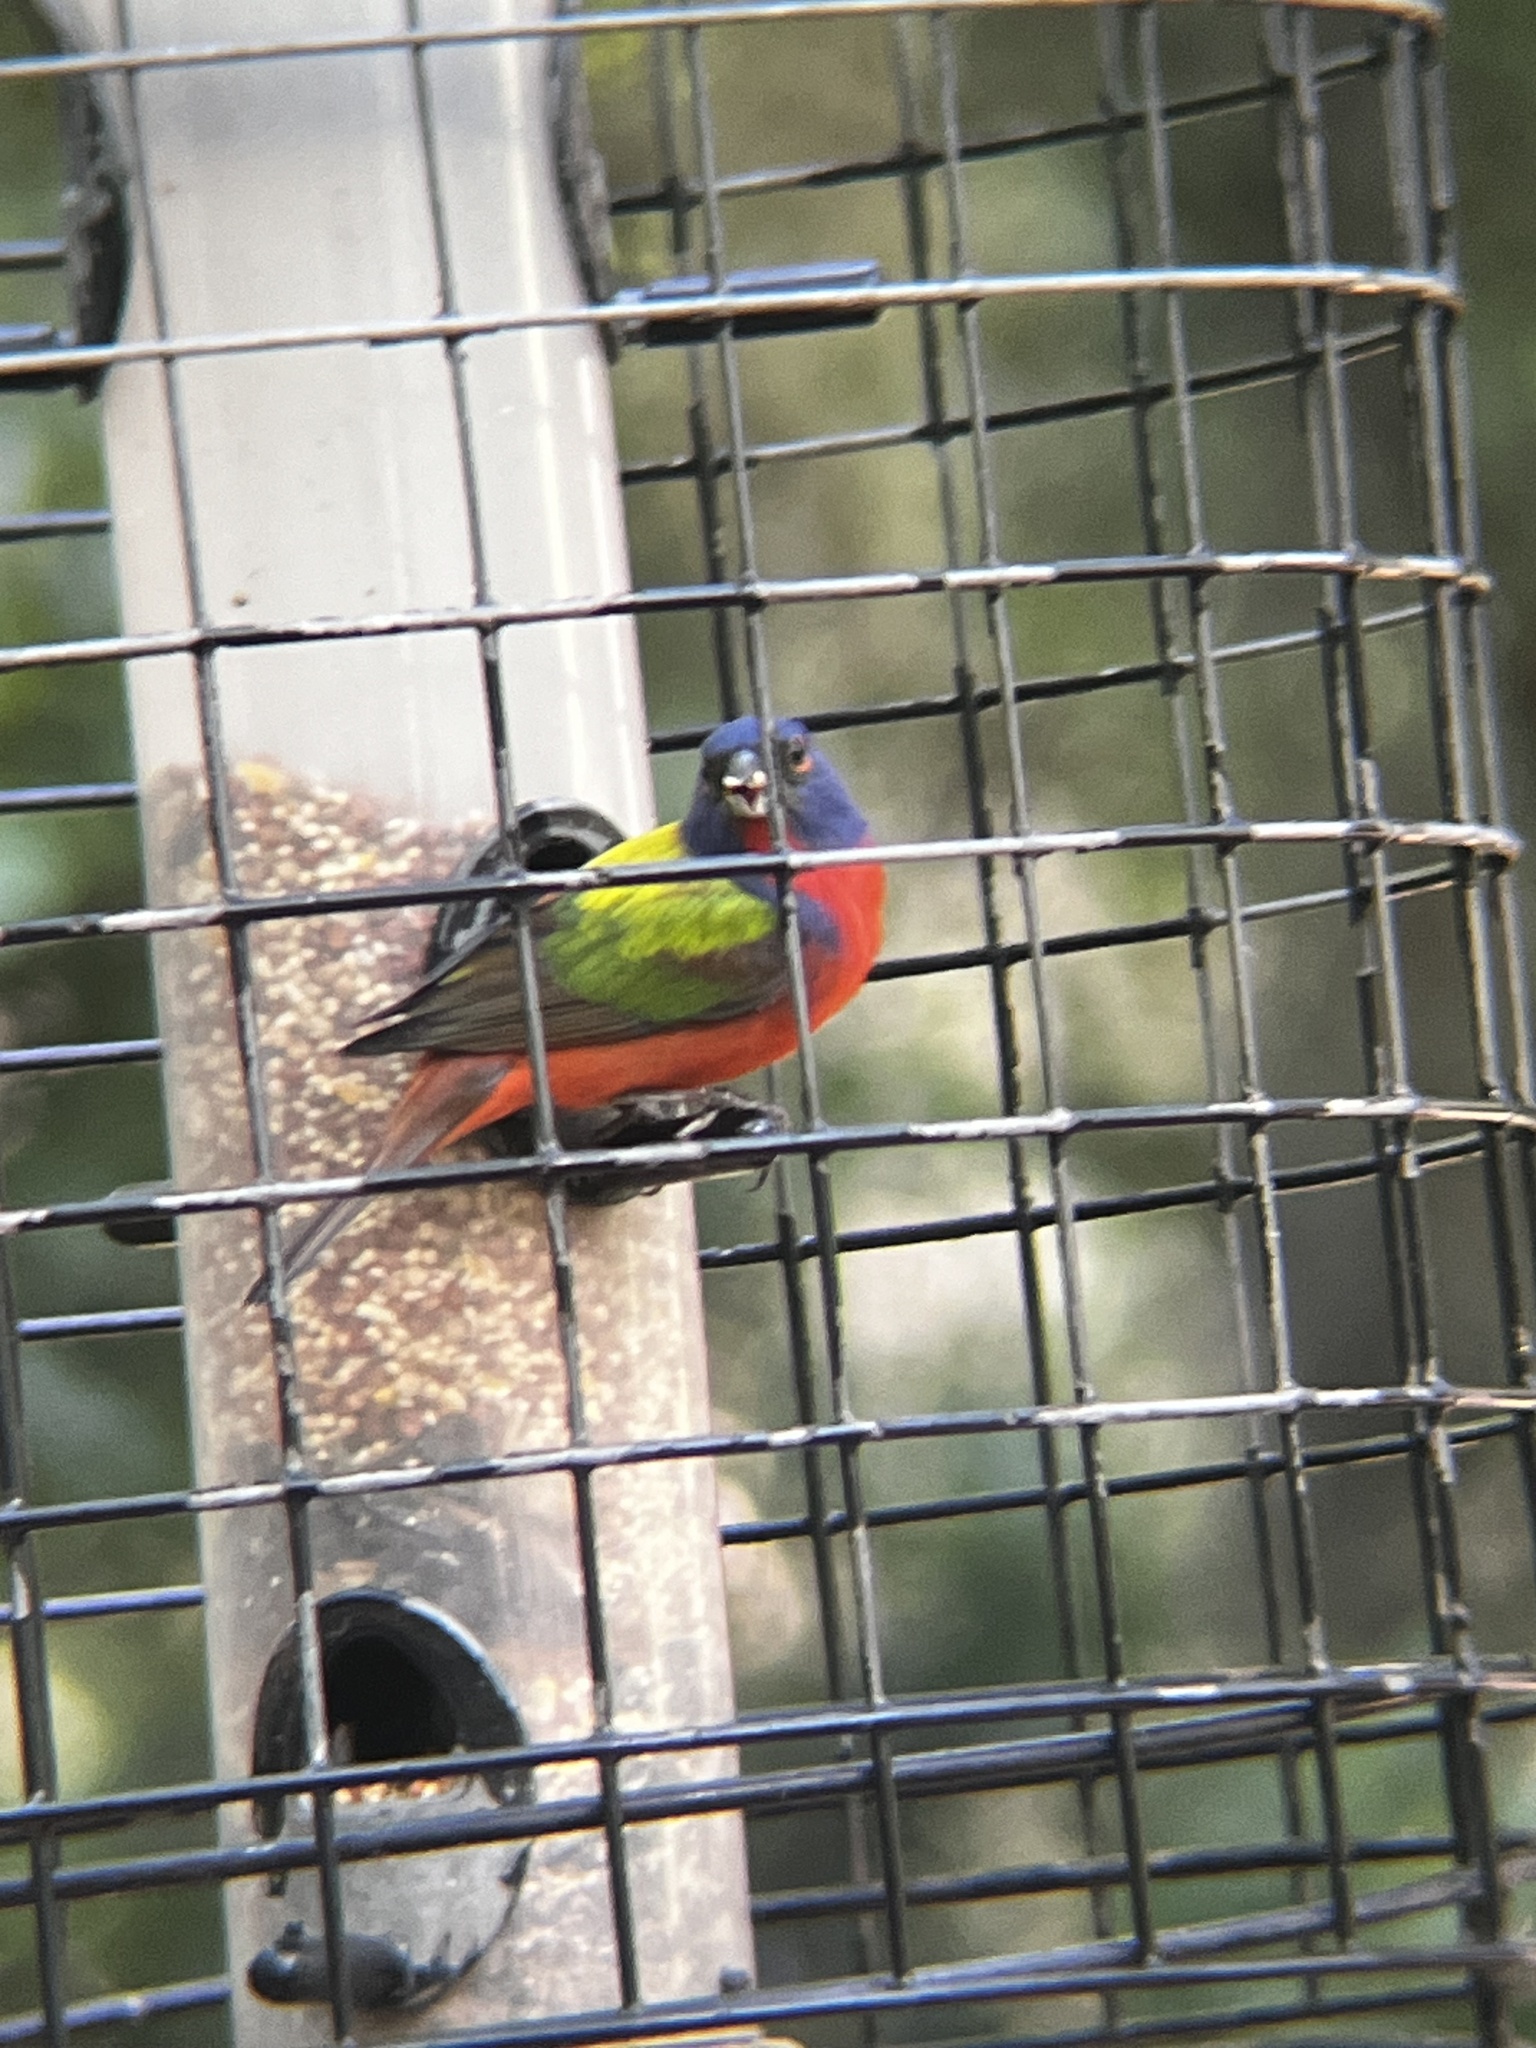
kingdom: Animalia
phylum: Chordata
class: Aves
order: Passeriformes
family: Cardinalidae
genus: Passerina
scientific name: Passerina ciris
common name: Painted bunting
